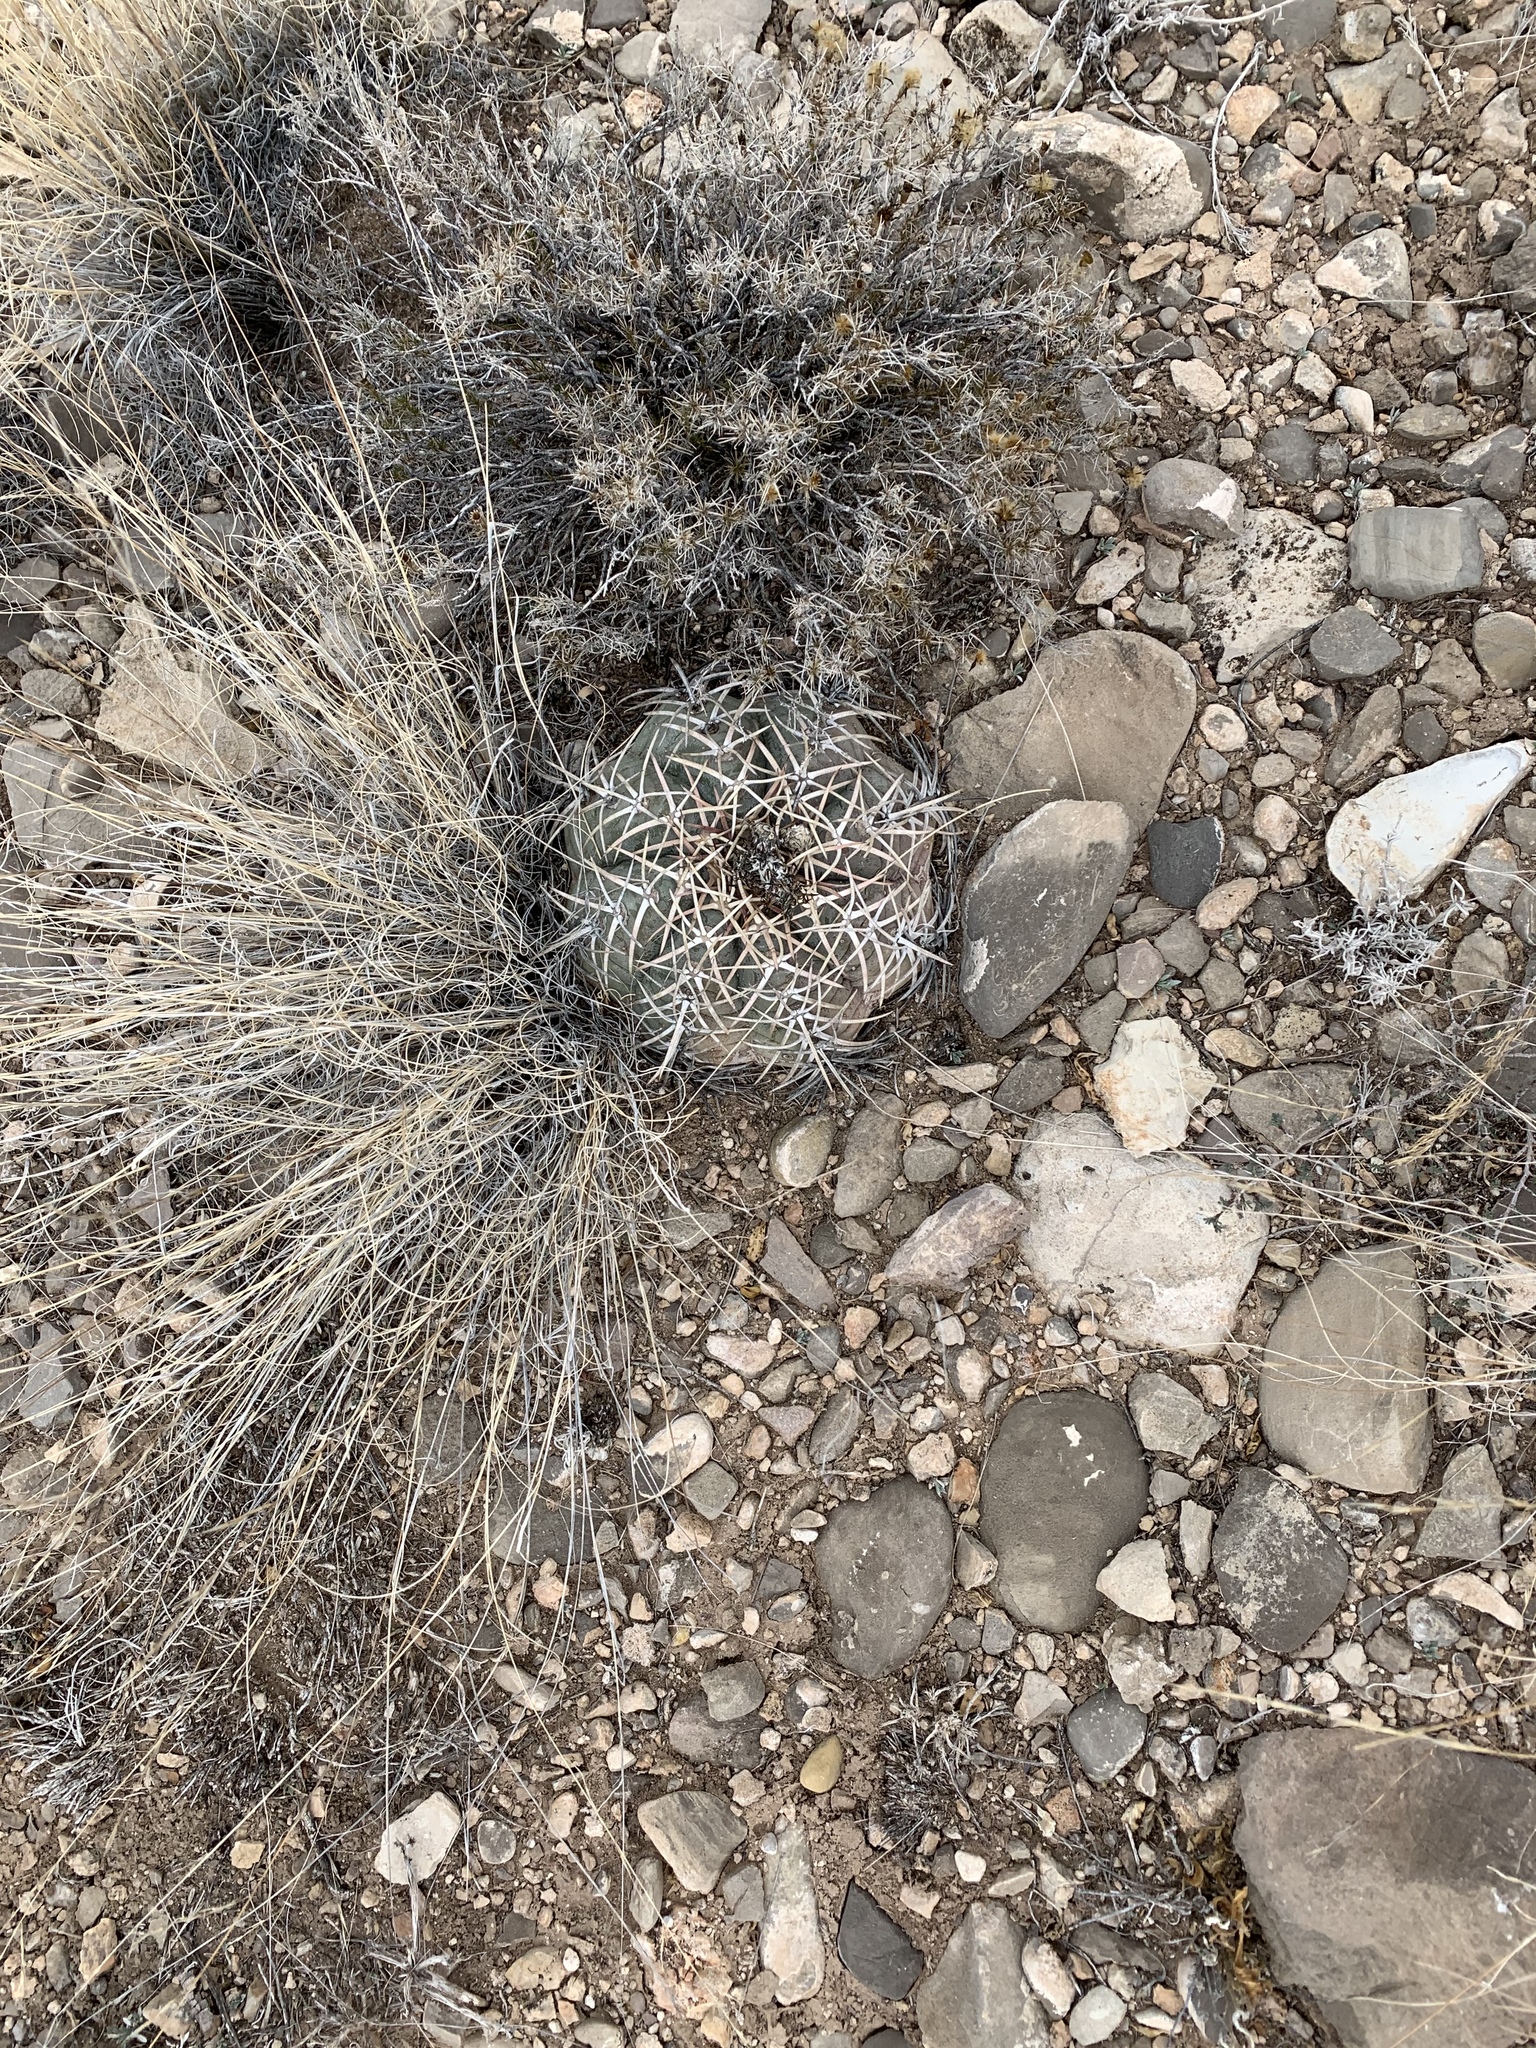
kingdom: Plantae
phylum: Tracheophyta
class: Magnoliopsida
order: Caryophyllales
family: Cactaceae
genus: Echinocactus
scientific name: Echinocactus horizonthalonius
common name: Devilshead
